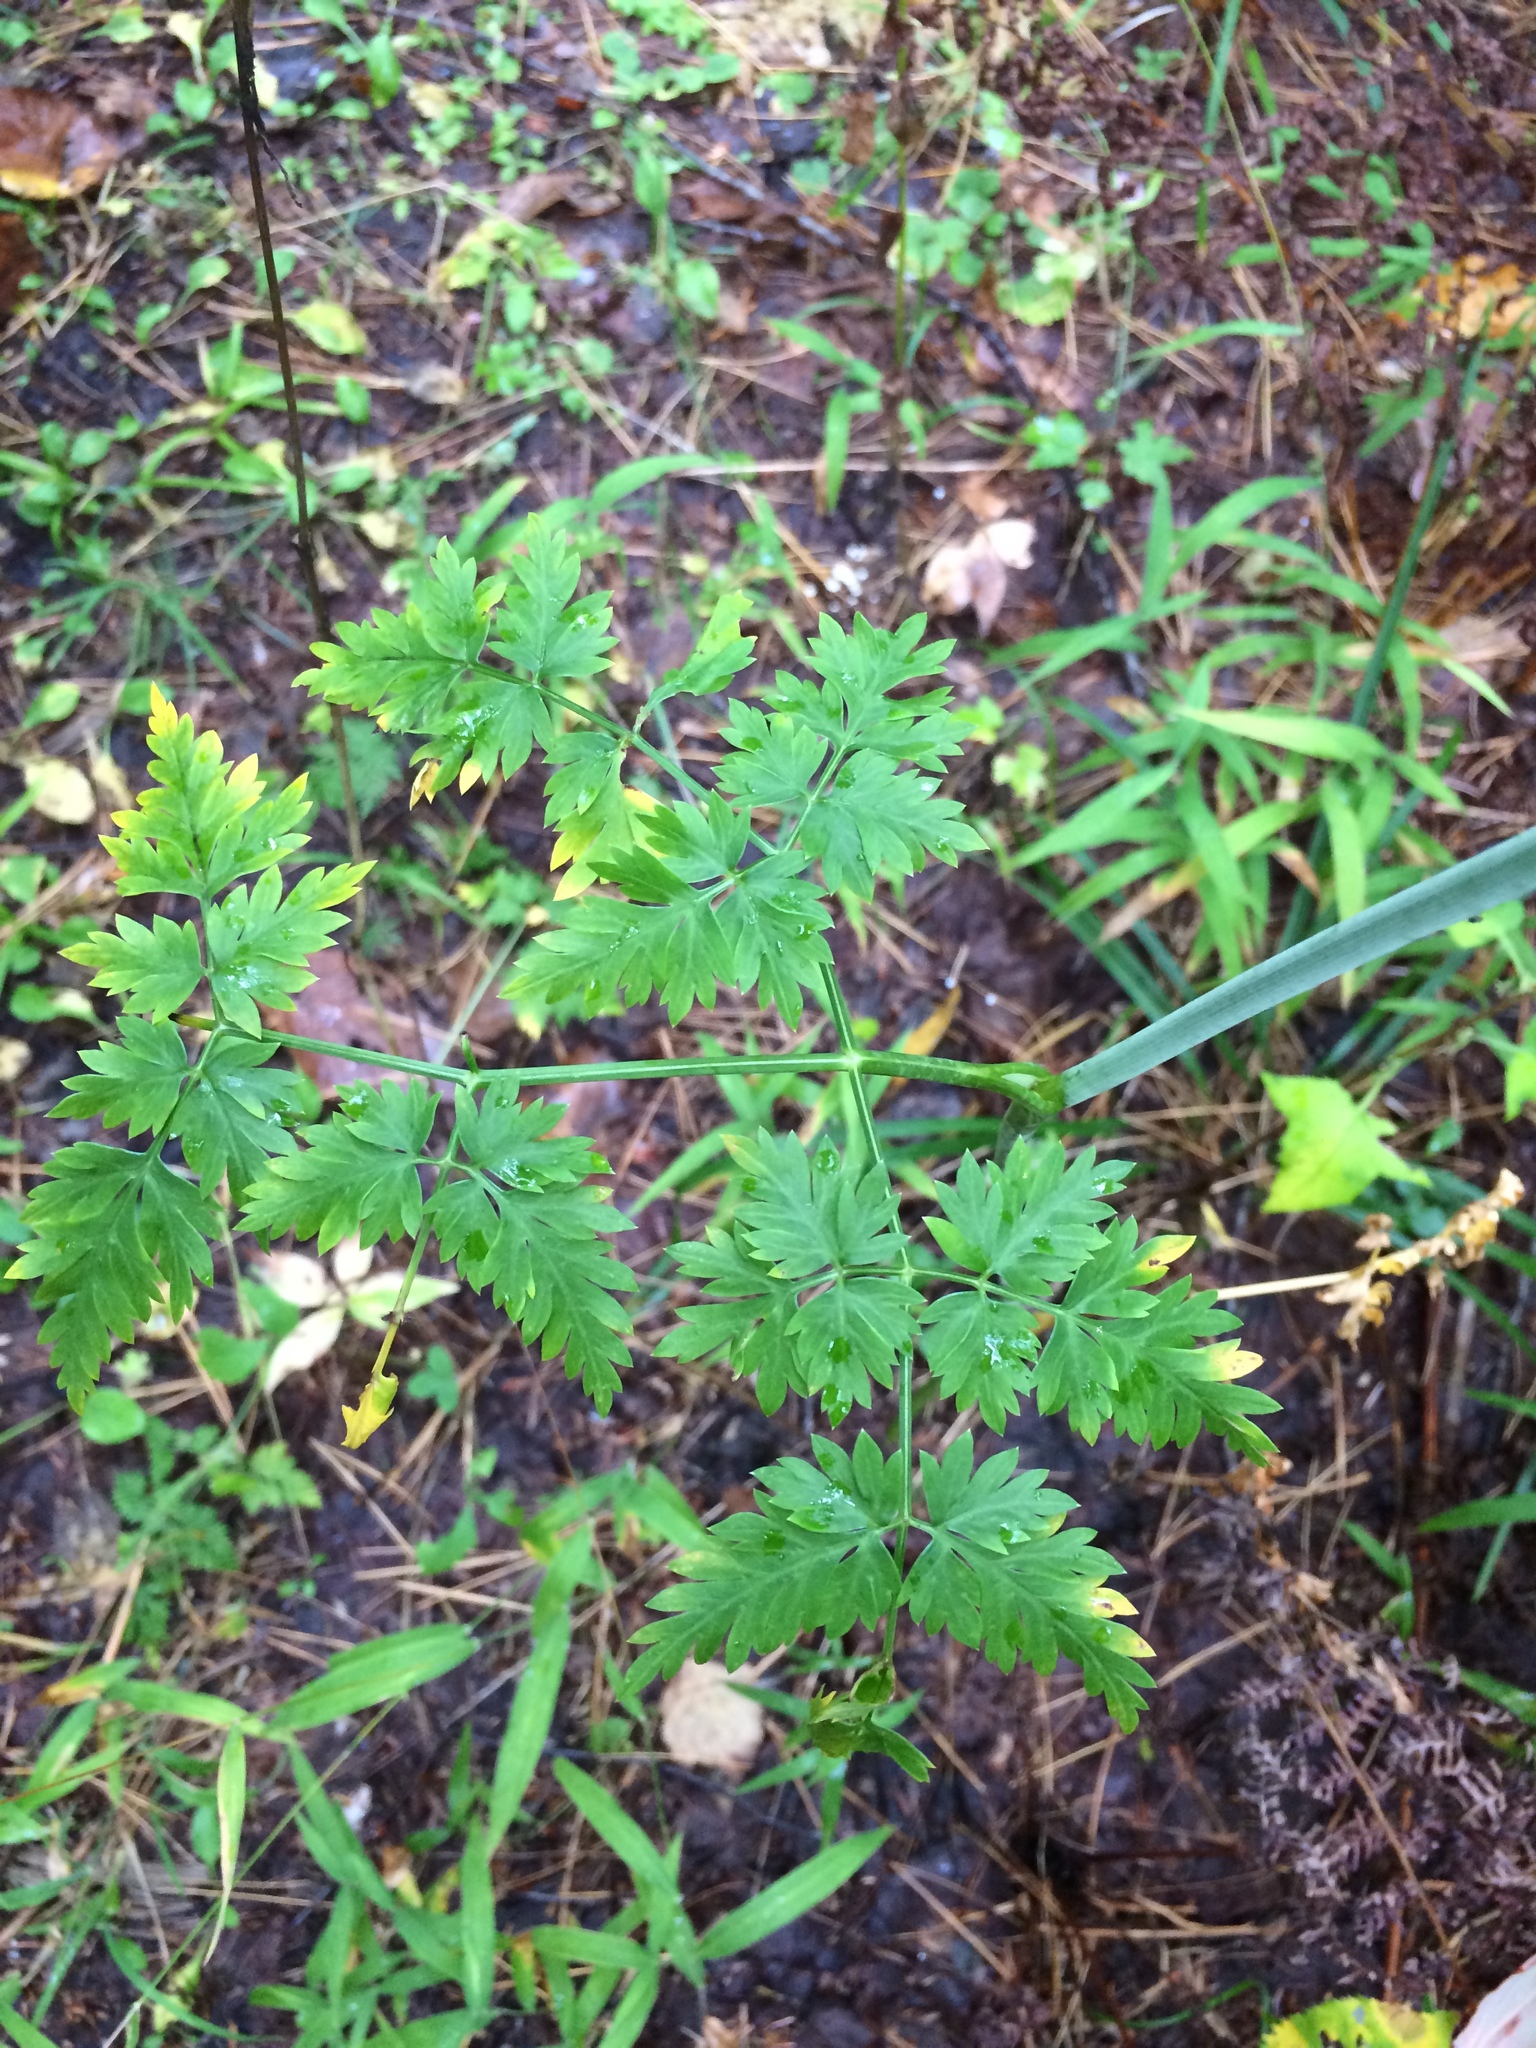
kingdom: Plantae
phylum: Tracheophyta
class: Magnoliopsida
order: Apiales
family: Apiaceae
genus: Kreidion
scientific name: Kreidion chinensis
